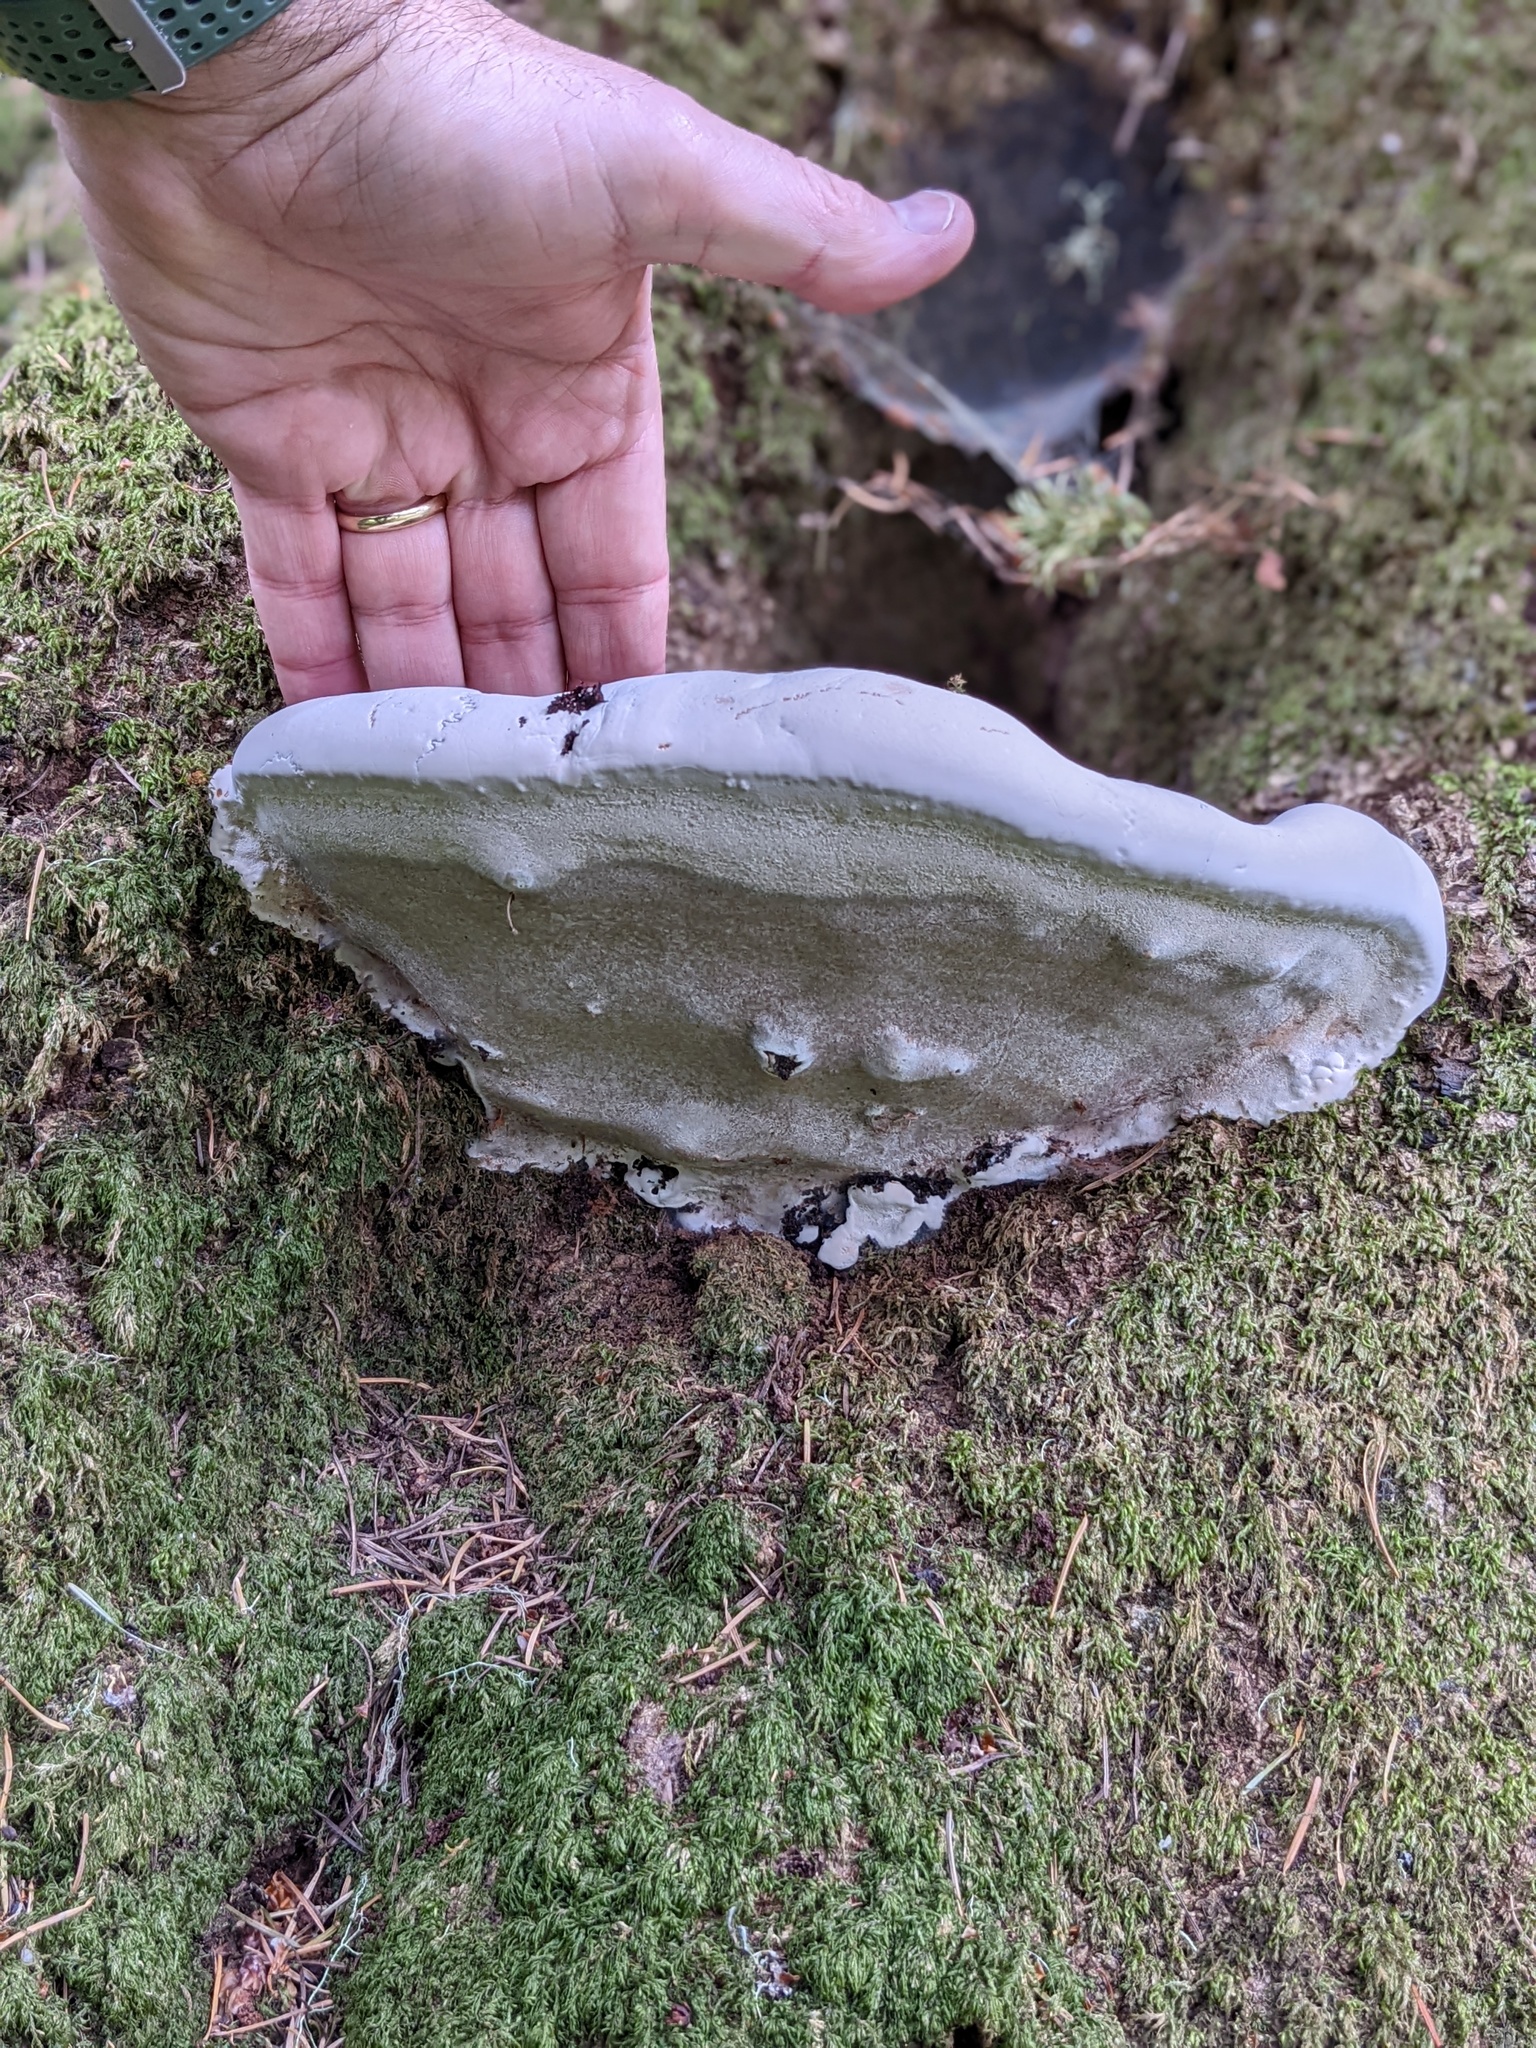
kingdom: Fungi
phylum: Basidiomycota
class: Agaricomycetes
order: Polyporales
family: Polyporaceae
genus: Ganoderma
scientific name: Ganoderma brownii
